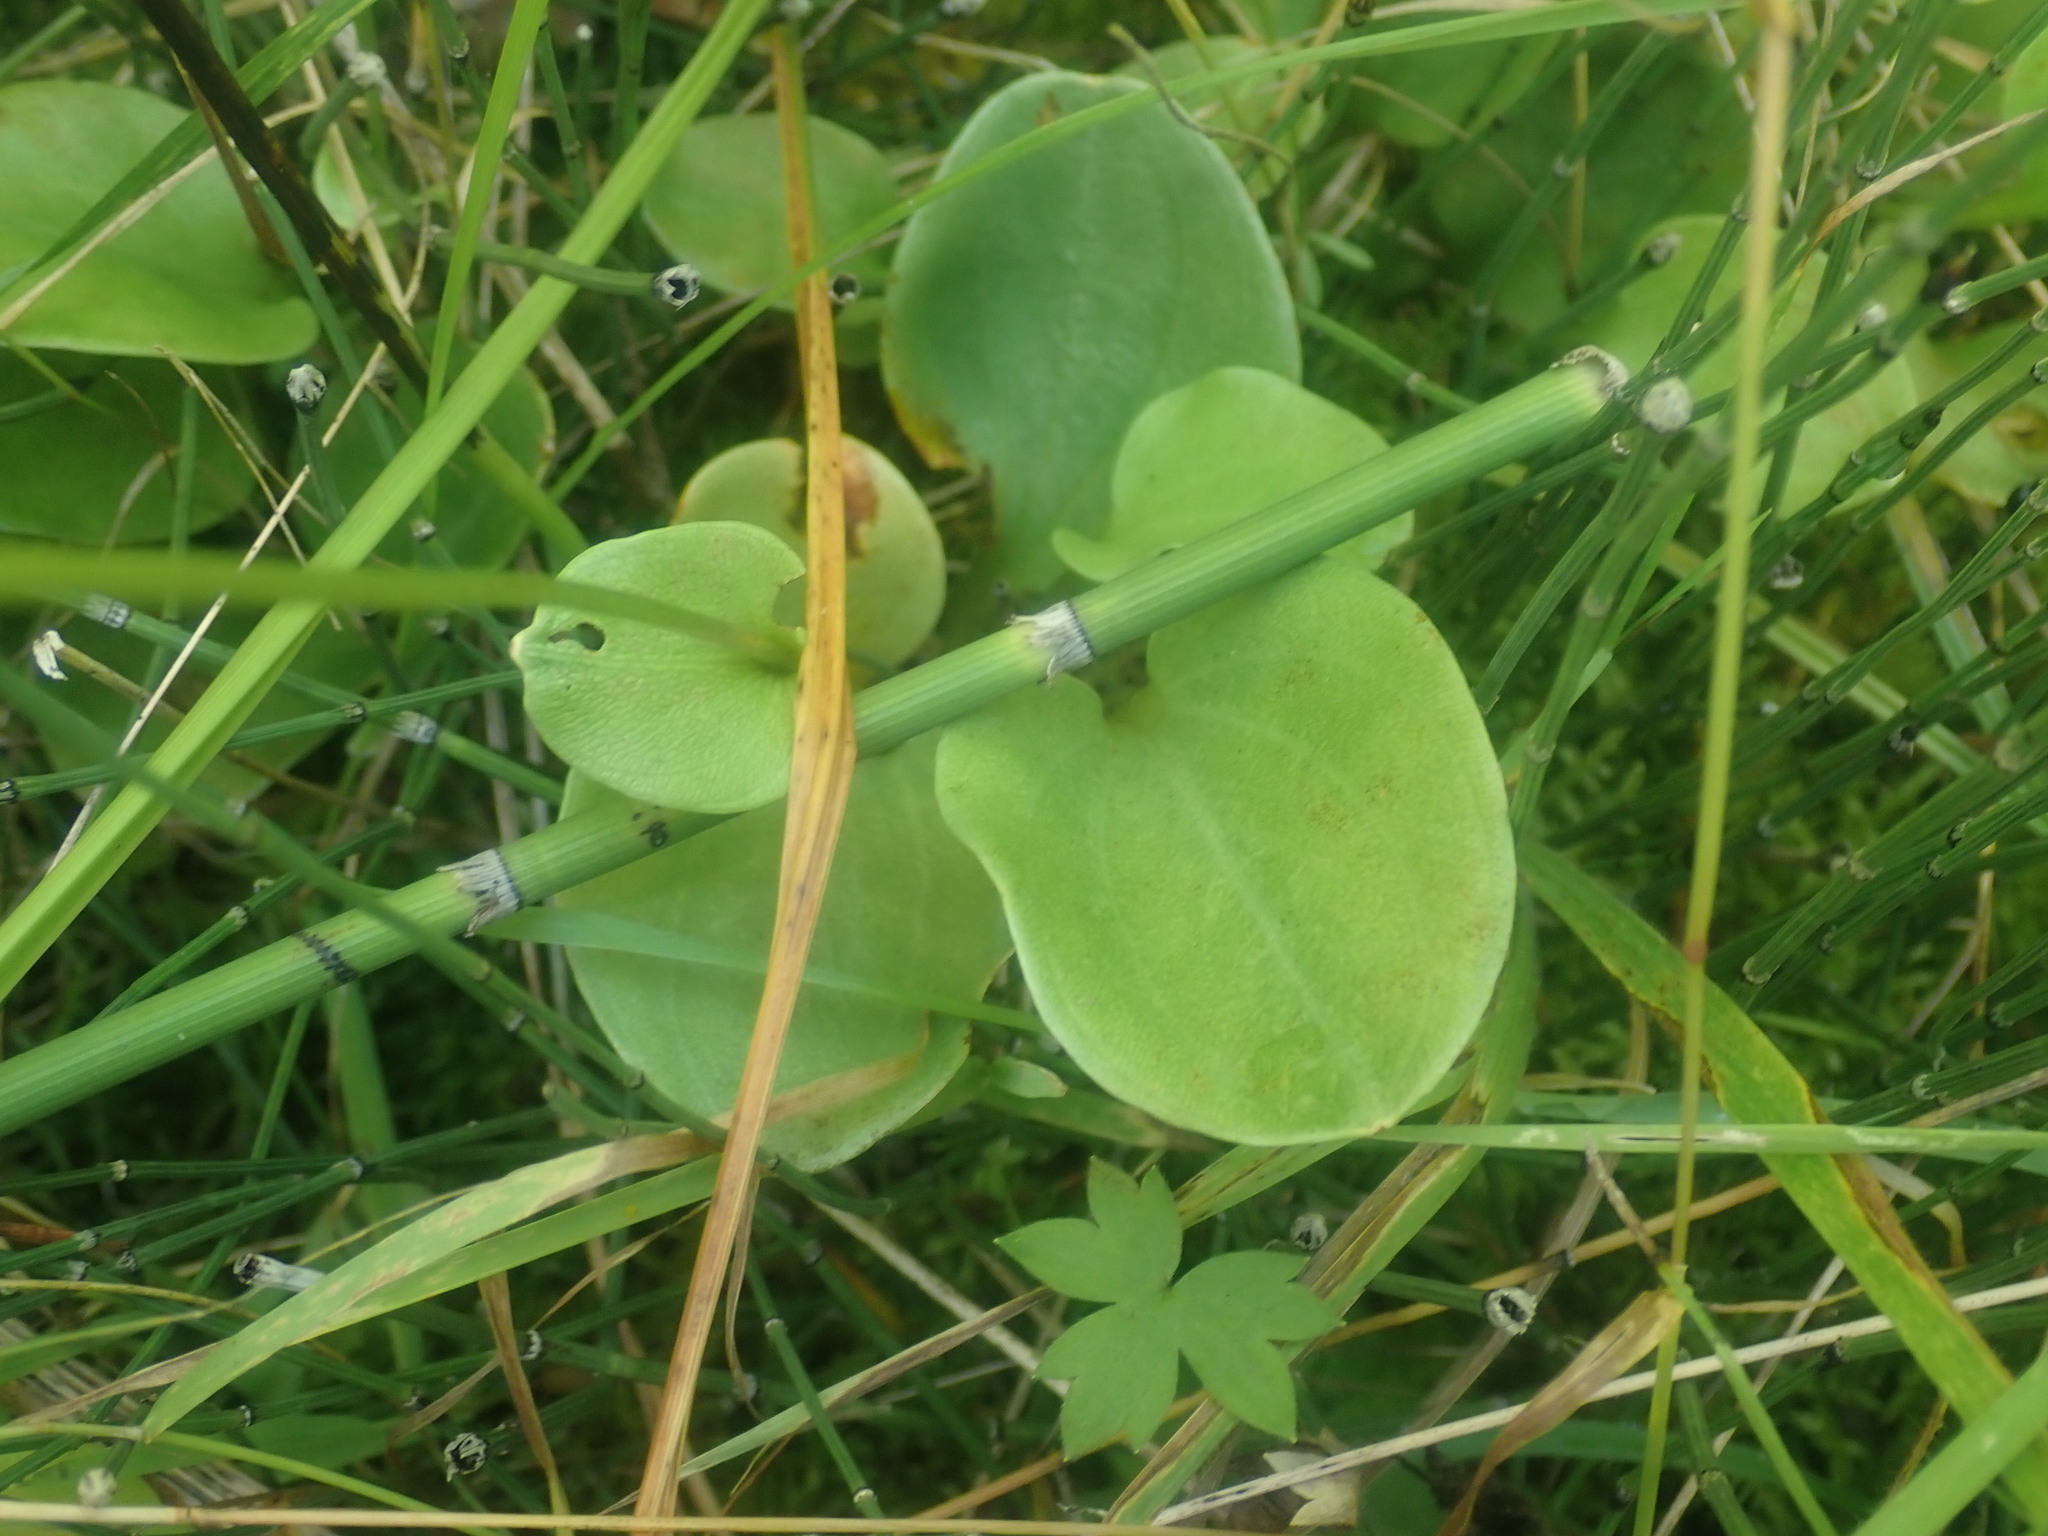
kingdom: Plantae
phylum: Tracheophyta
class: Magnoliopsida
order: Celastrales
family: Parnassiaceae
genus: Parnassia
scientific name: Parnassia glauca
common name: American grass-of-parnassus
